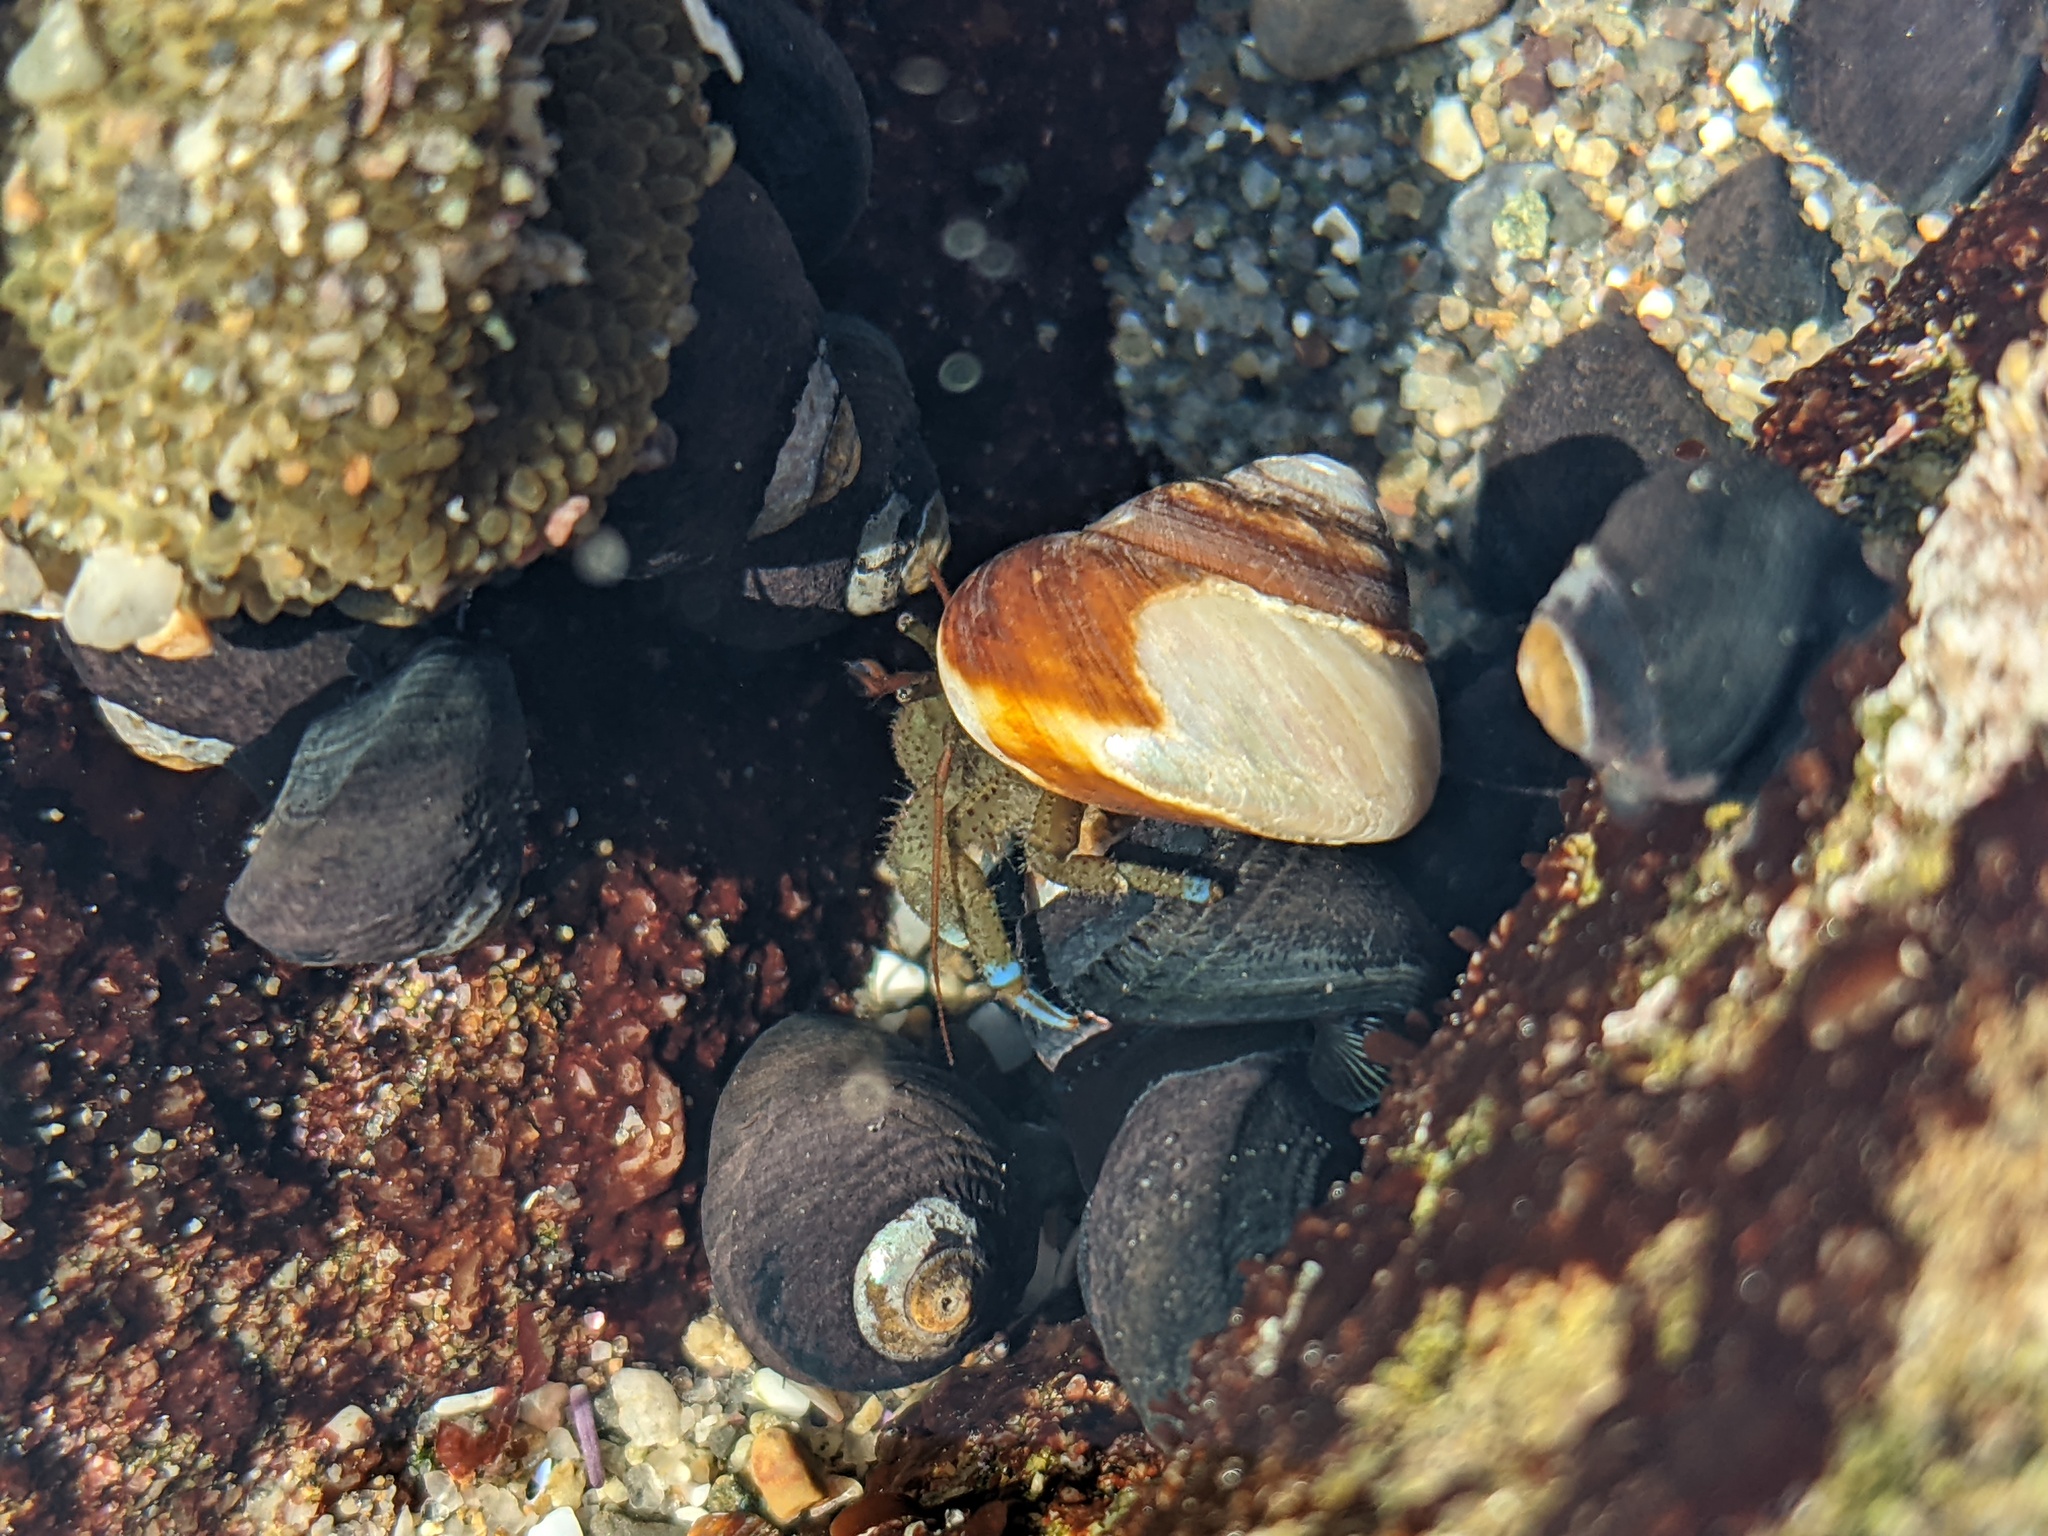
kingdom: Animalia
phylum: Arthropoda
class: Malacostraca
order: Decapoda
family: Paguridae
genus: Pagurus
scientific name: Pagurus samuelis
